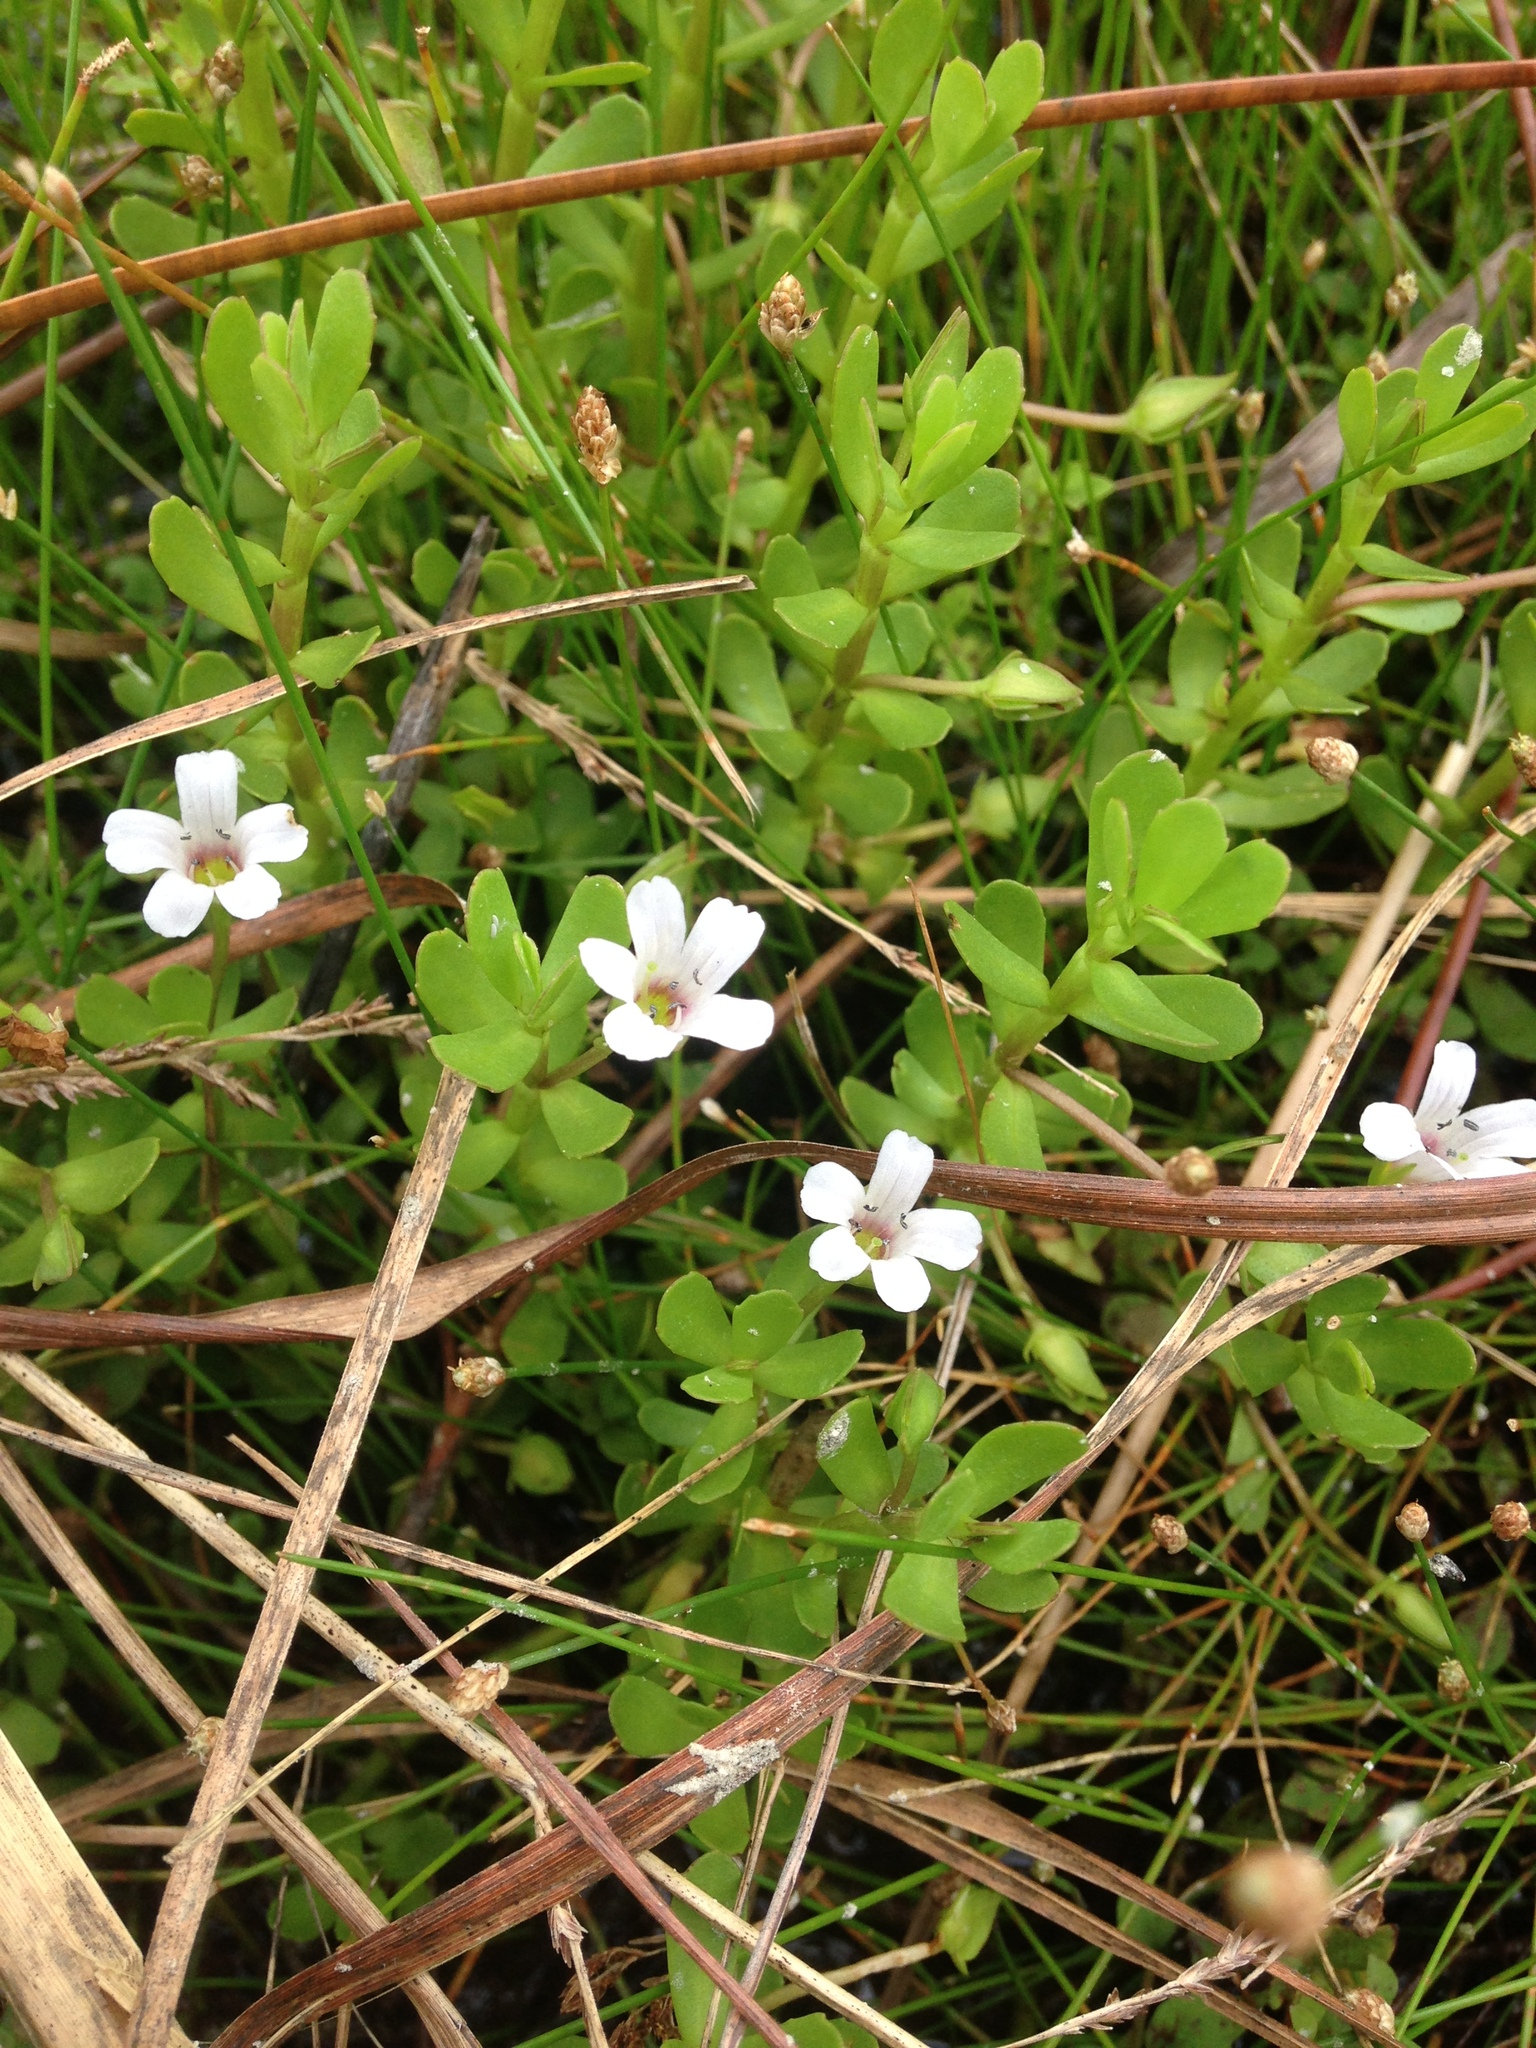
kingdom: Plantae
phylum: Tracheophyta
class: Magnoliopsida
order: Lamiales
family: Plantaginaceae
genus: Bacopa
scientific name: Bacopa monnieri
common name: Indian-pennywort
